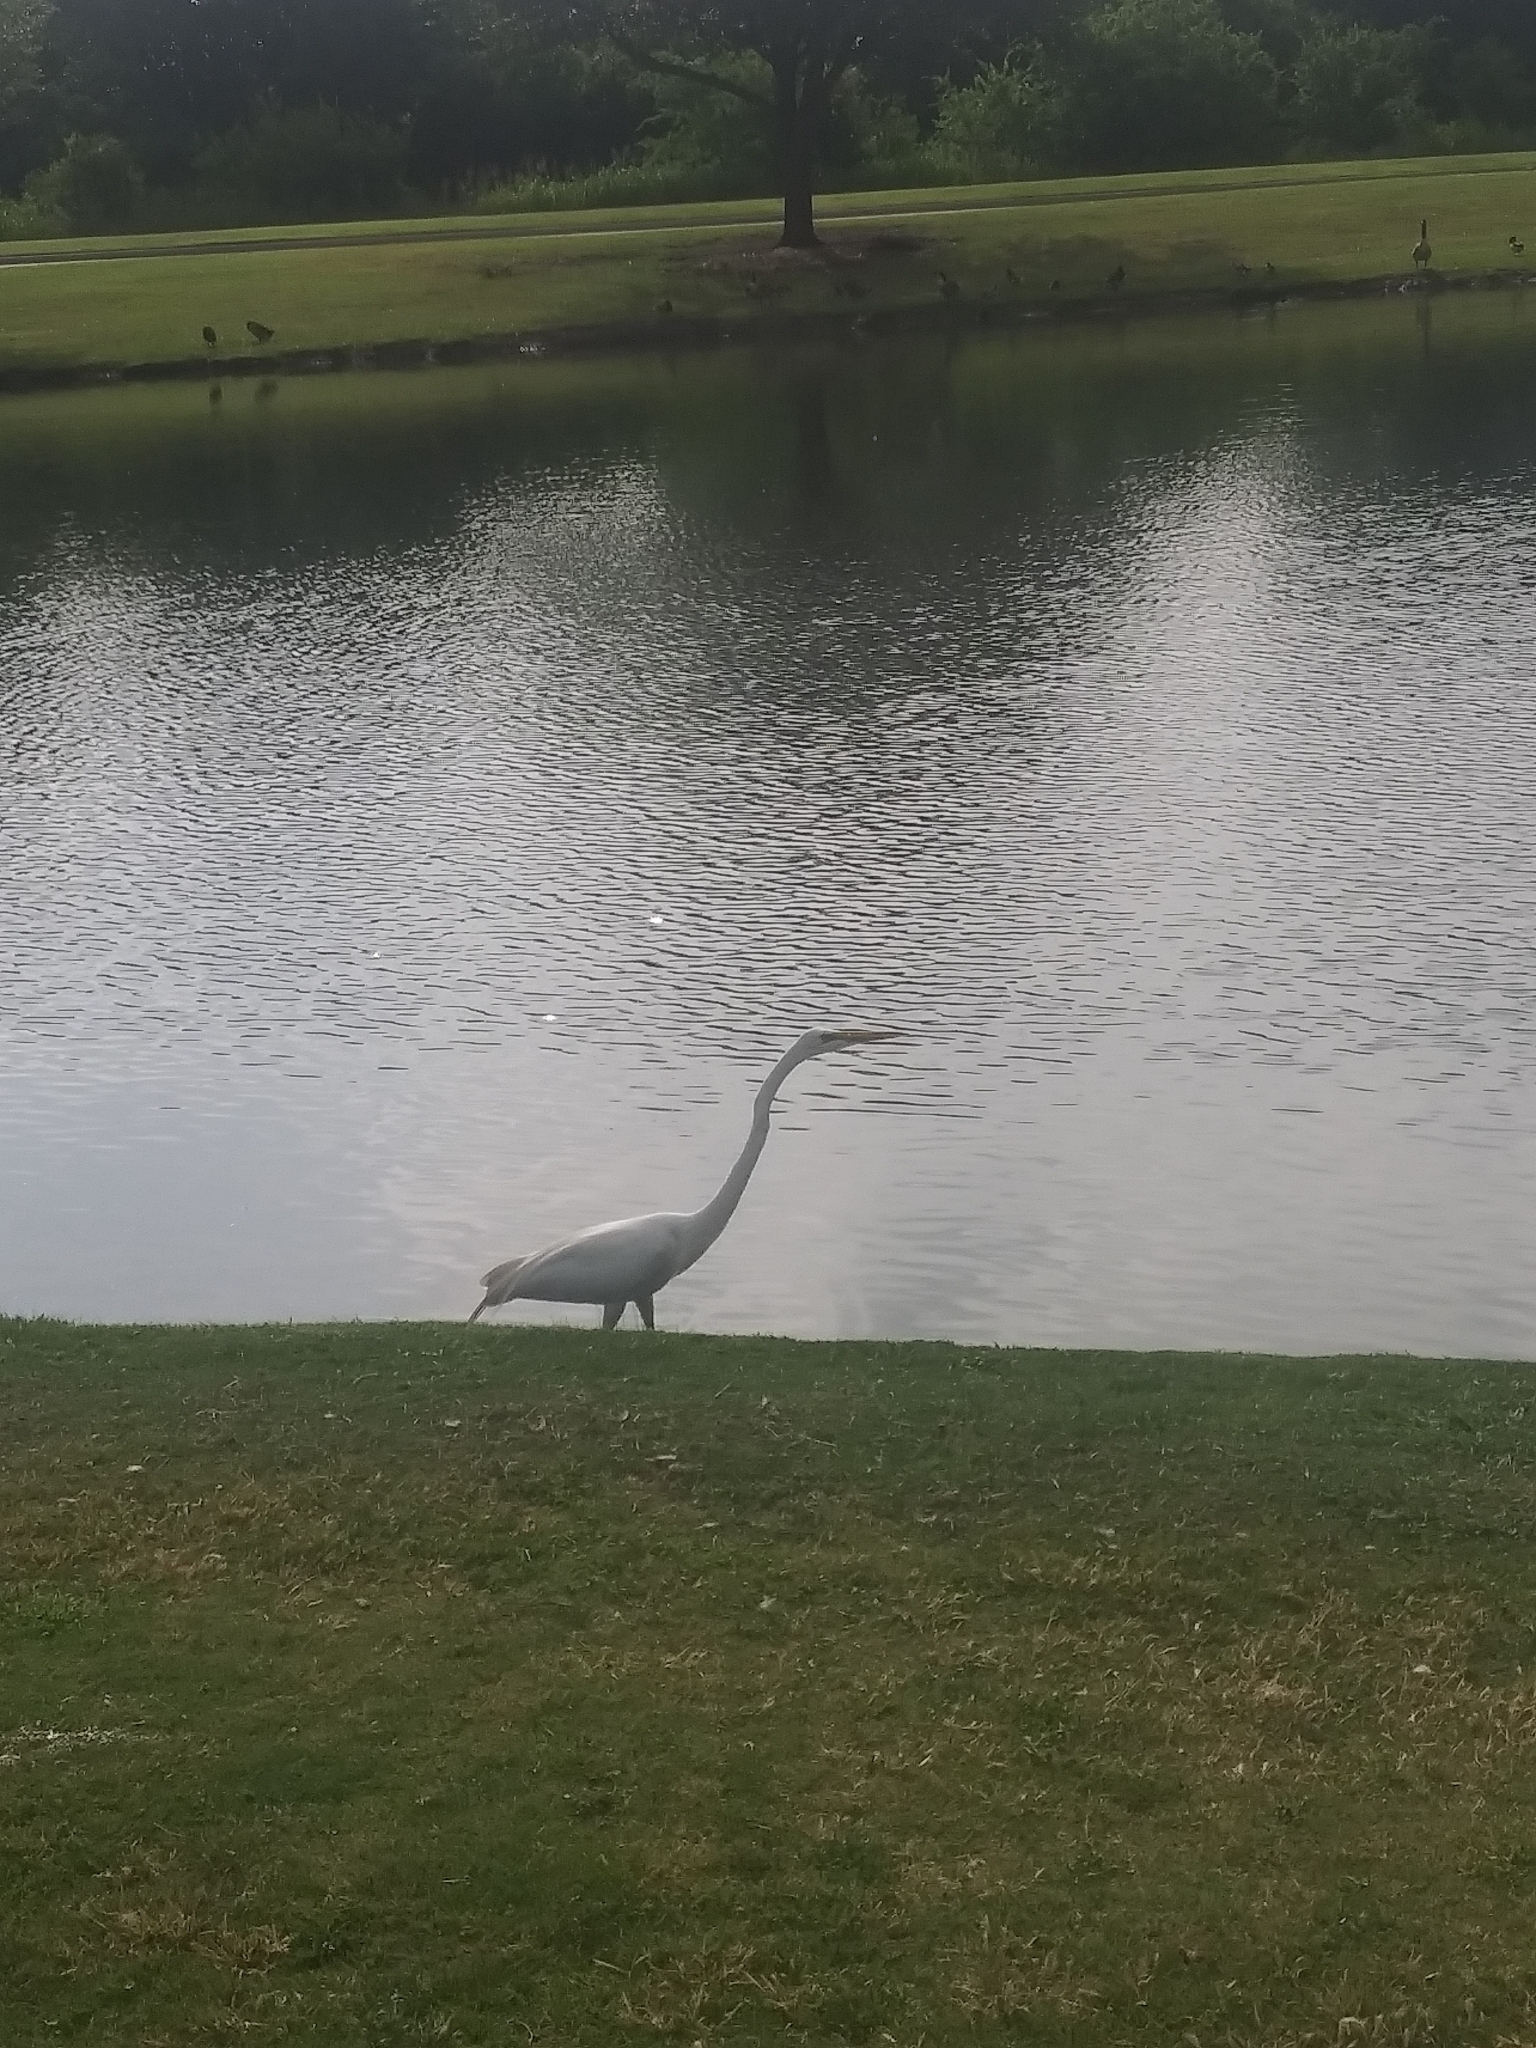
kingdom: Animalia
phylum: Chordata
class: Aves
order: Pelecaniformes
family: Ardeidae
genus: Ardea
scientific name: Ardea alba
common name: Great egret
